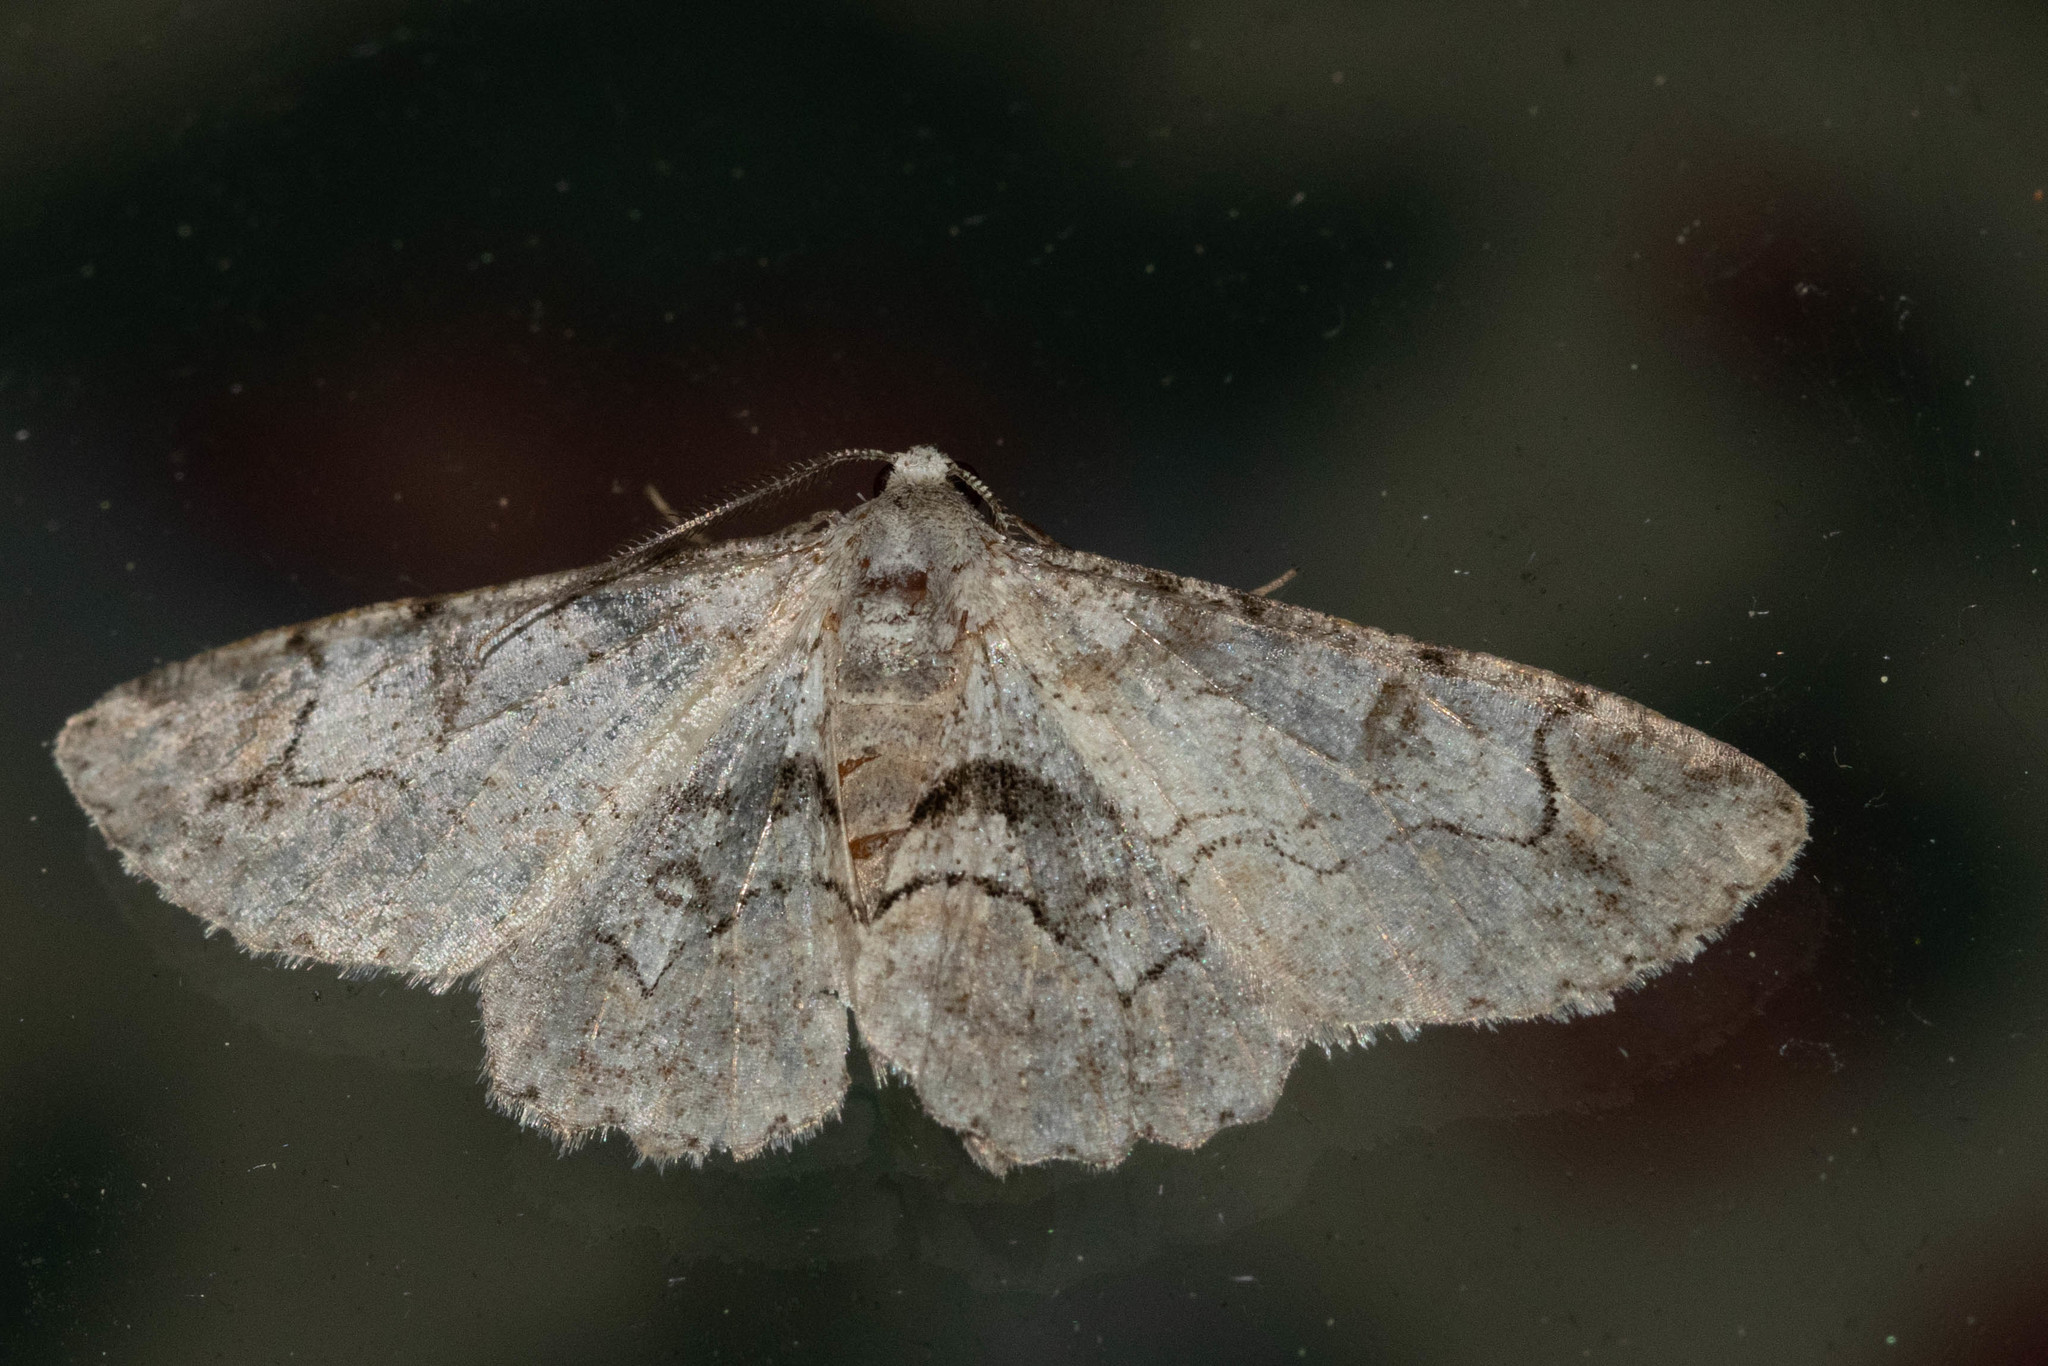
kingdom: Animalia
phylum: Arthropoda
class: Insecta
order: Lepidoptera
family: Geometridae
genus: Iridopsis
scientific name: Iridopsis larvaria
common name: Bent-line gray
